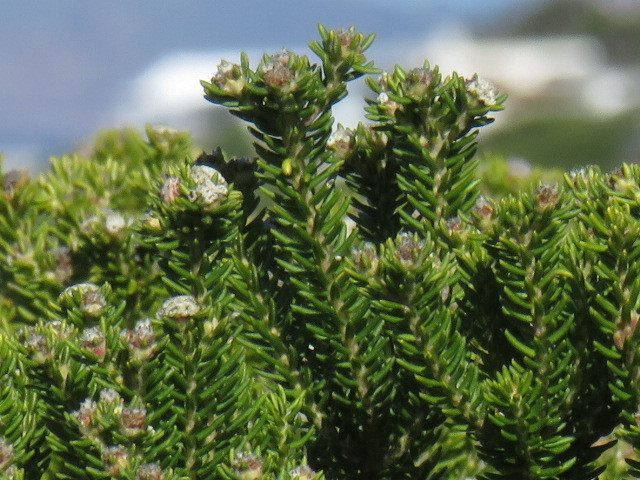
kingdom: Plantae
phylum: Tracheophyta
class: Magnoliopsida
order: Rosales
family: Rhamnaceae
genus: Phylica
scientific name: Phylica ericoides
